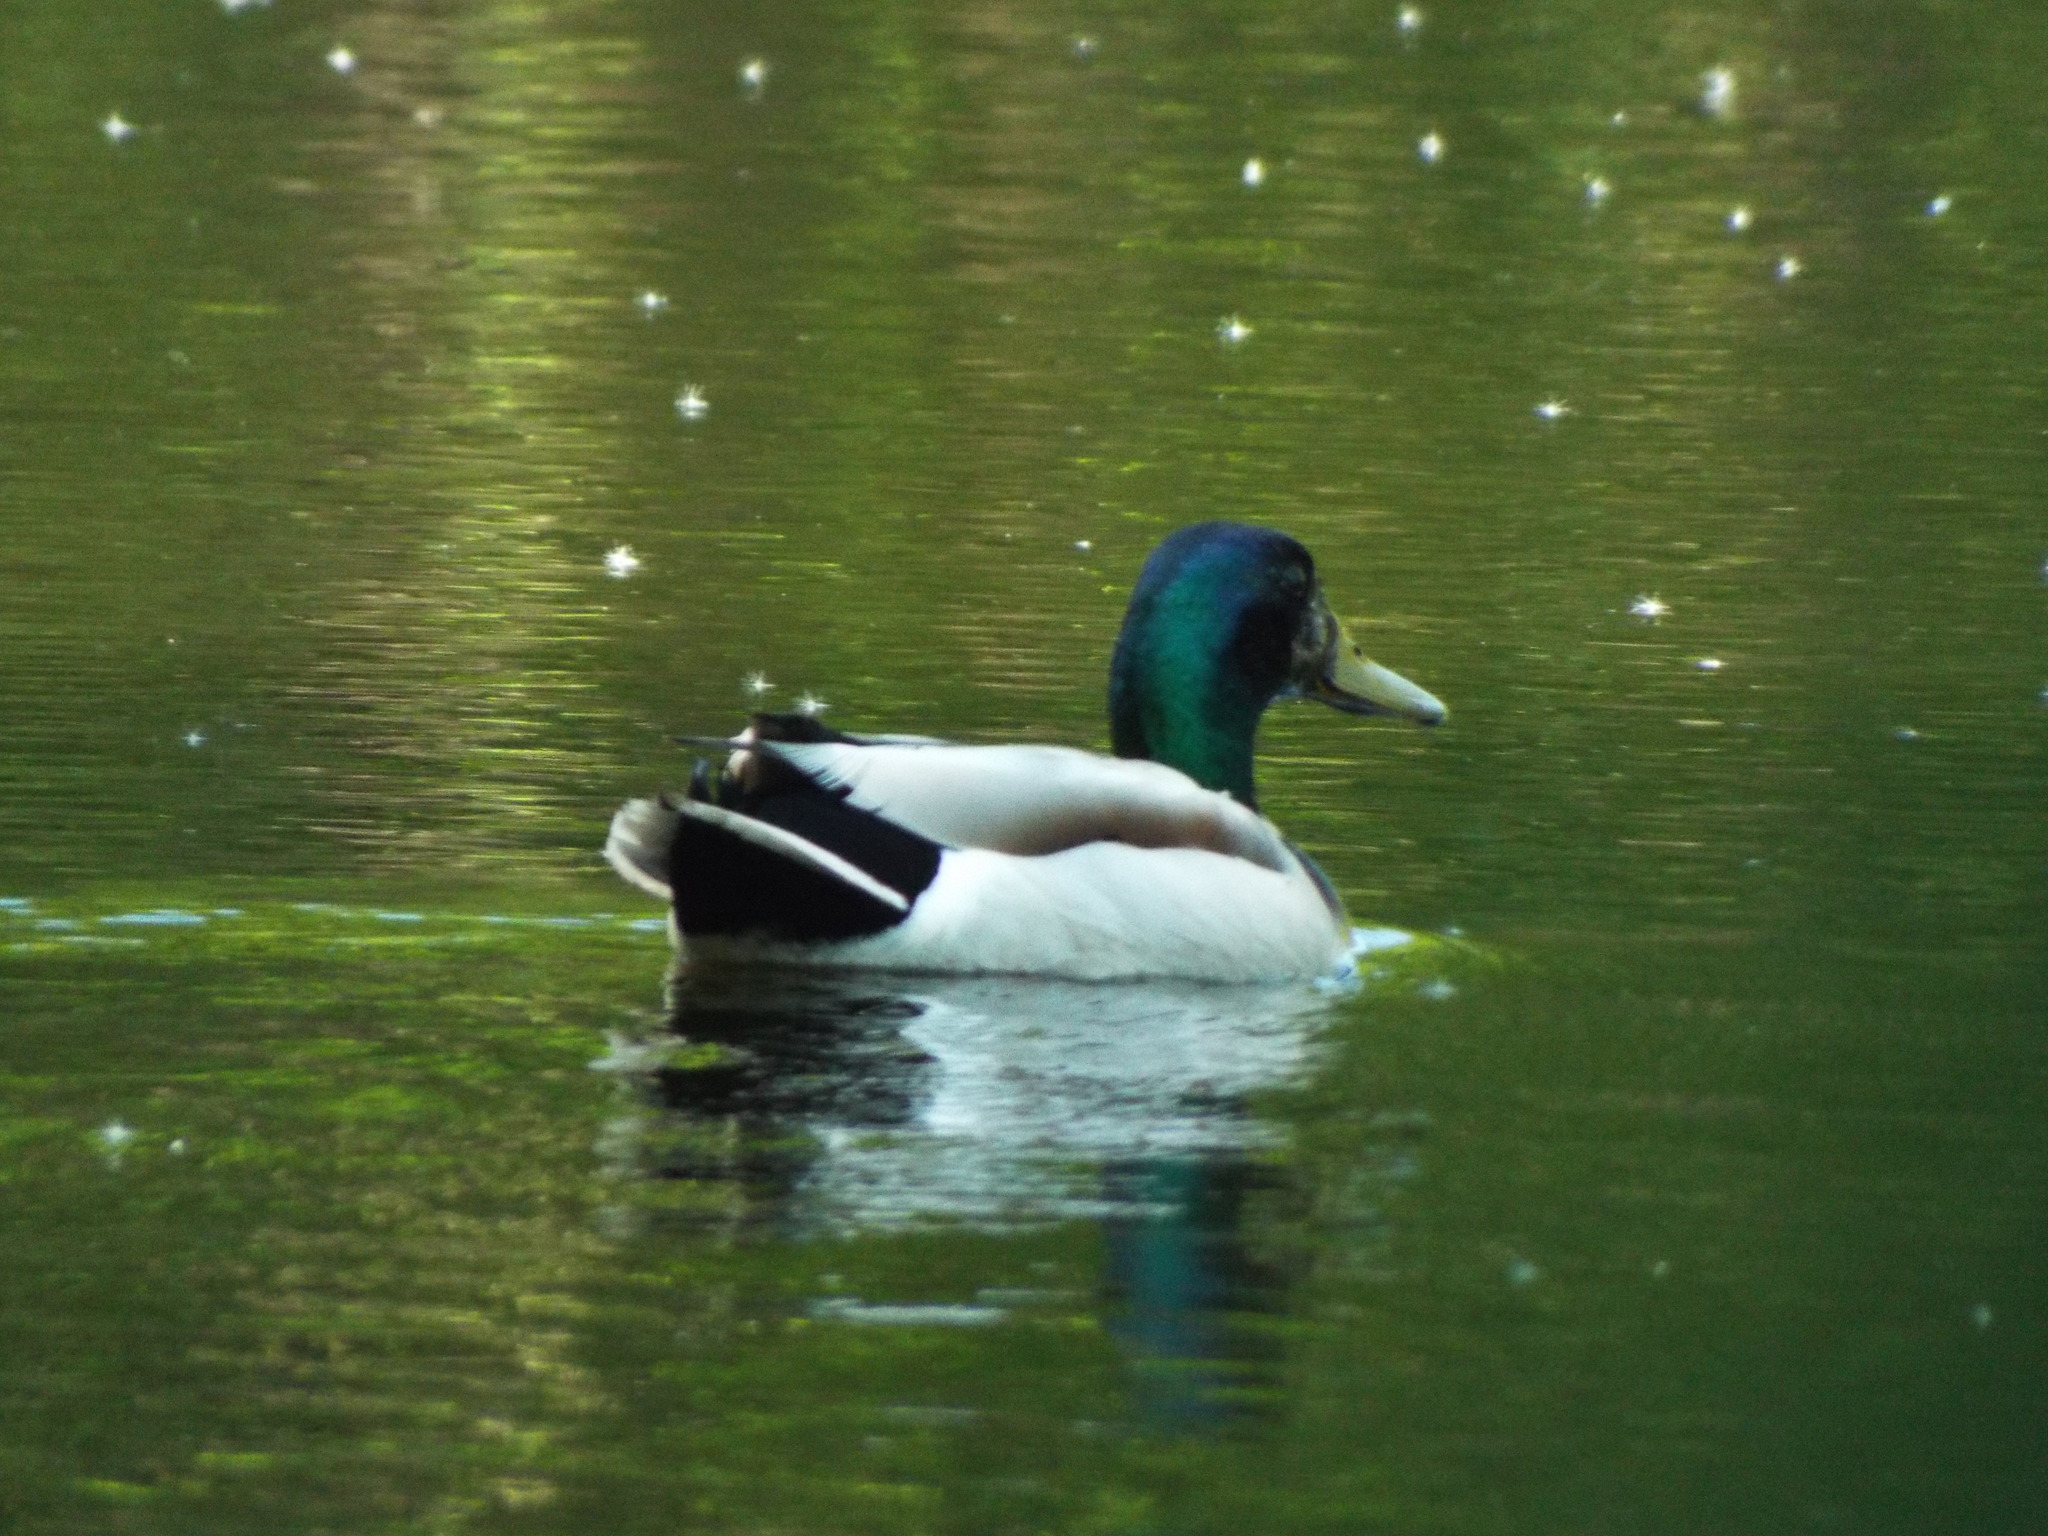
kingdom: Animalia
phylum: Chordata
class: Aves
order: Anseriformes
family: Anatidae
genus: Anas
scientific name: Anas platyrhynchos
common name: Mallard
